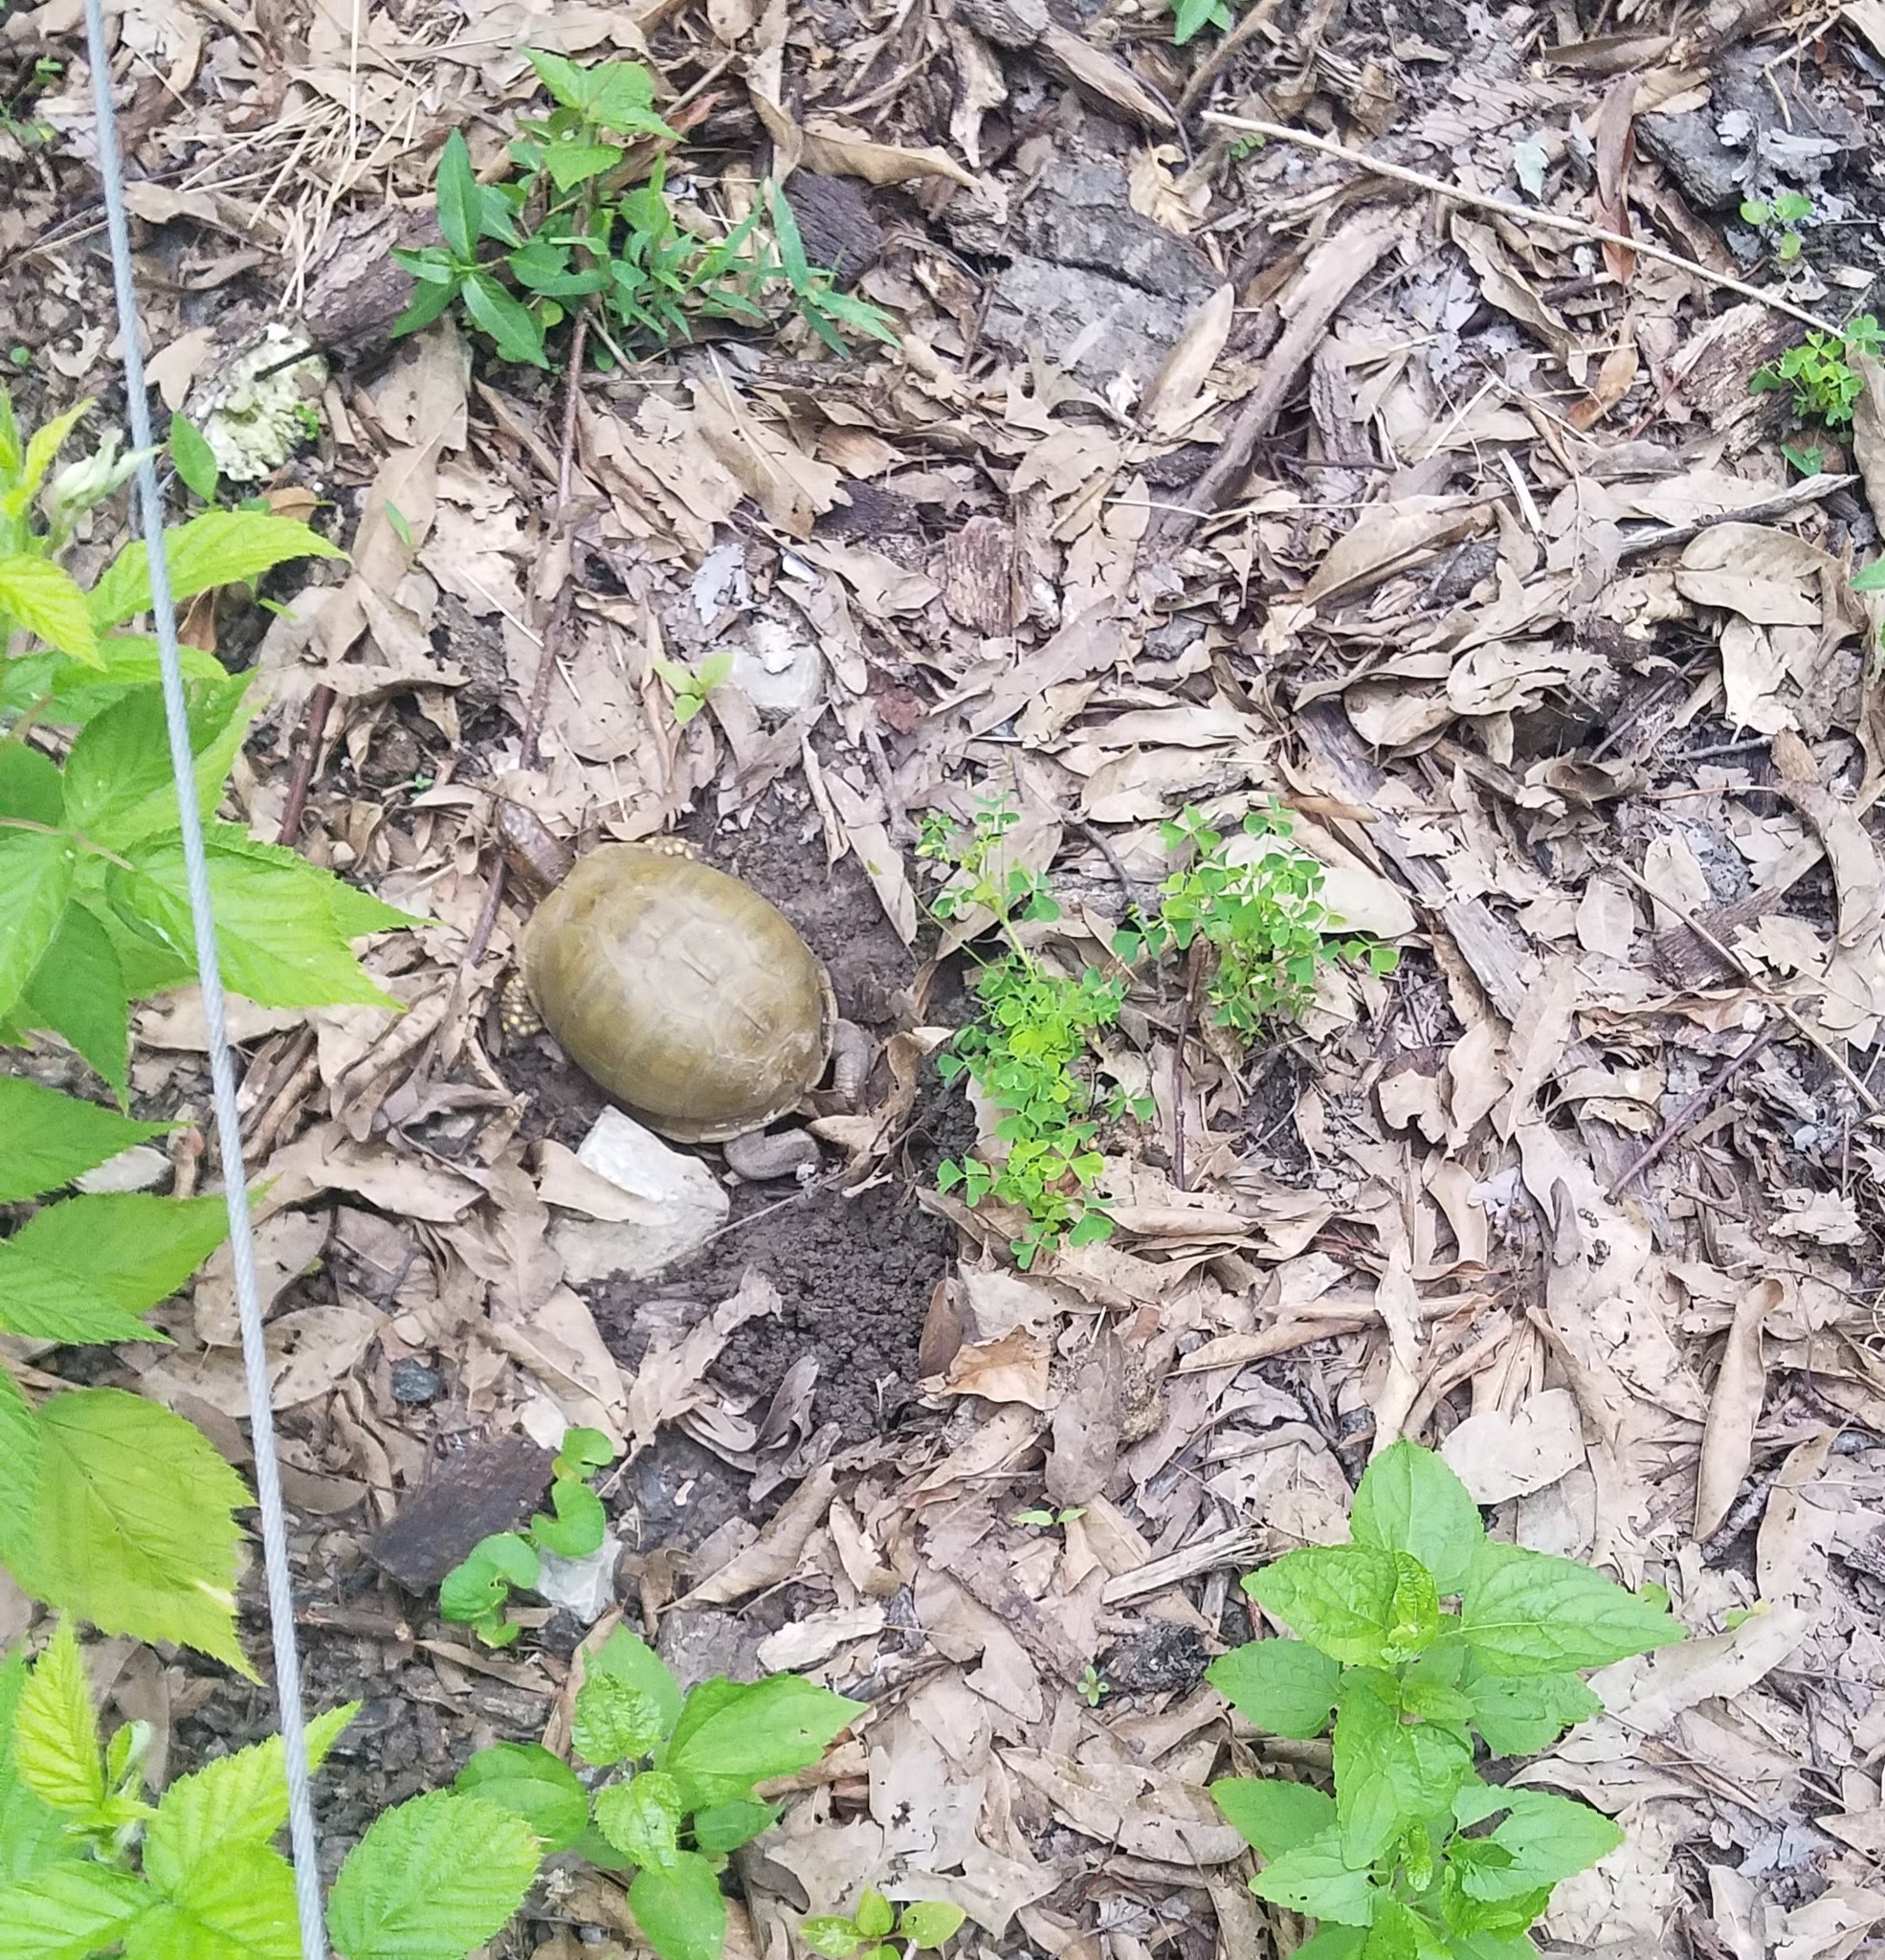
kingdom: Animalia
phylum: Chordata
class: Testudines
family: Emydidae
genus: Terrapene
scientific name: Terrapene carolina
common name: Common box turtle
